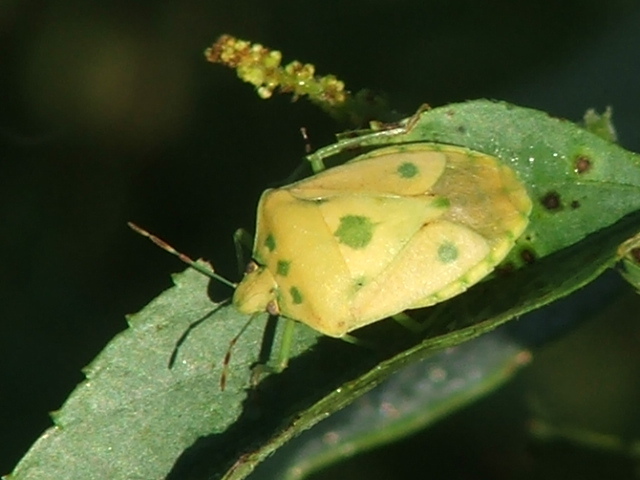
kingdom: Animalia
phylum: Arthropoda
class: Insecta
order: Hemiptera
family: Pentatomidae
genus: Nezara
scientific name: Nezara viridula
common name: Southern green stink bug
